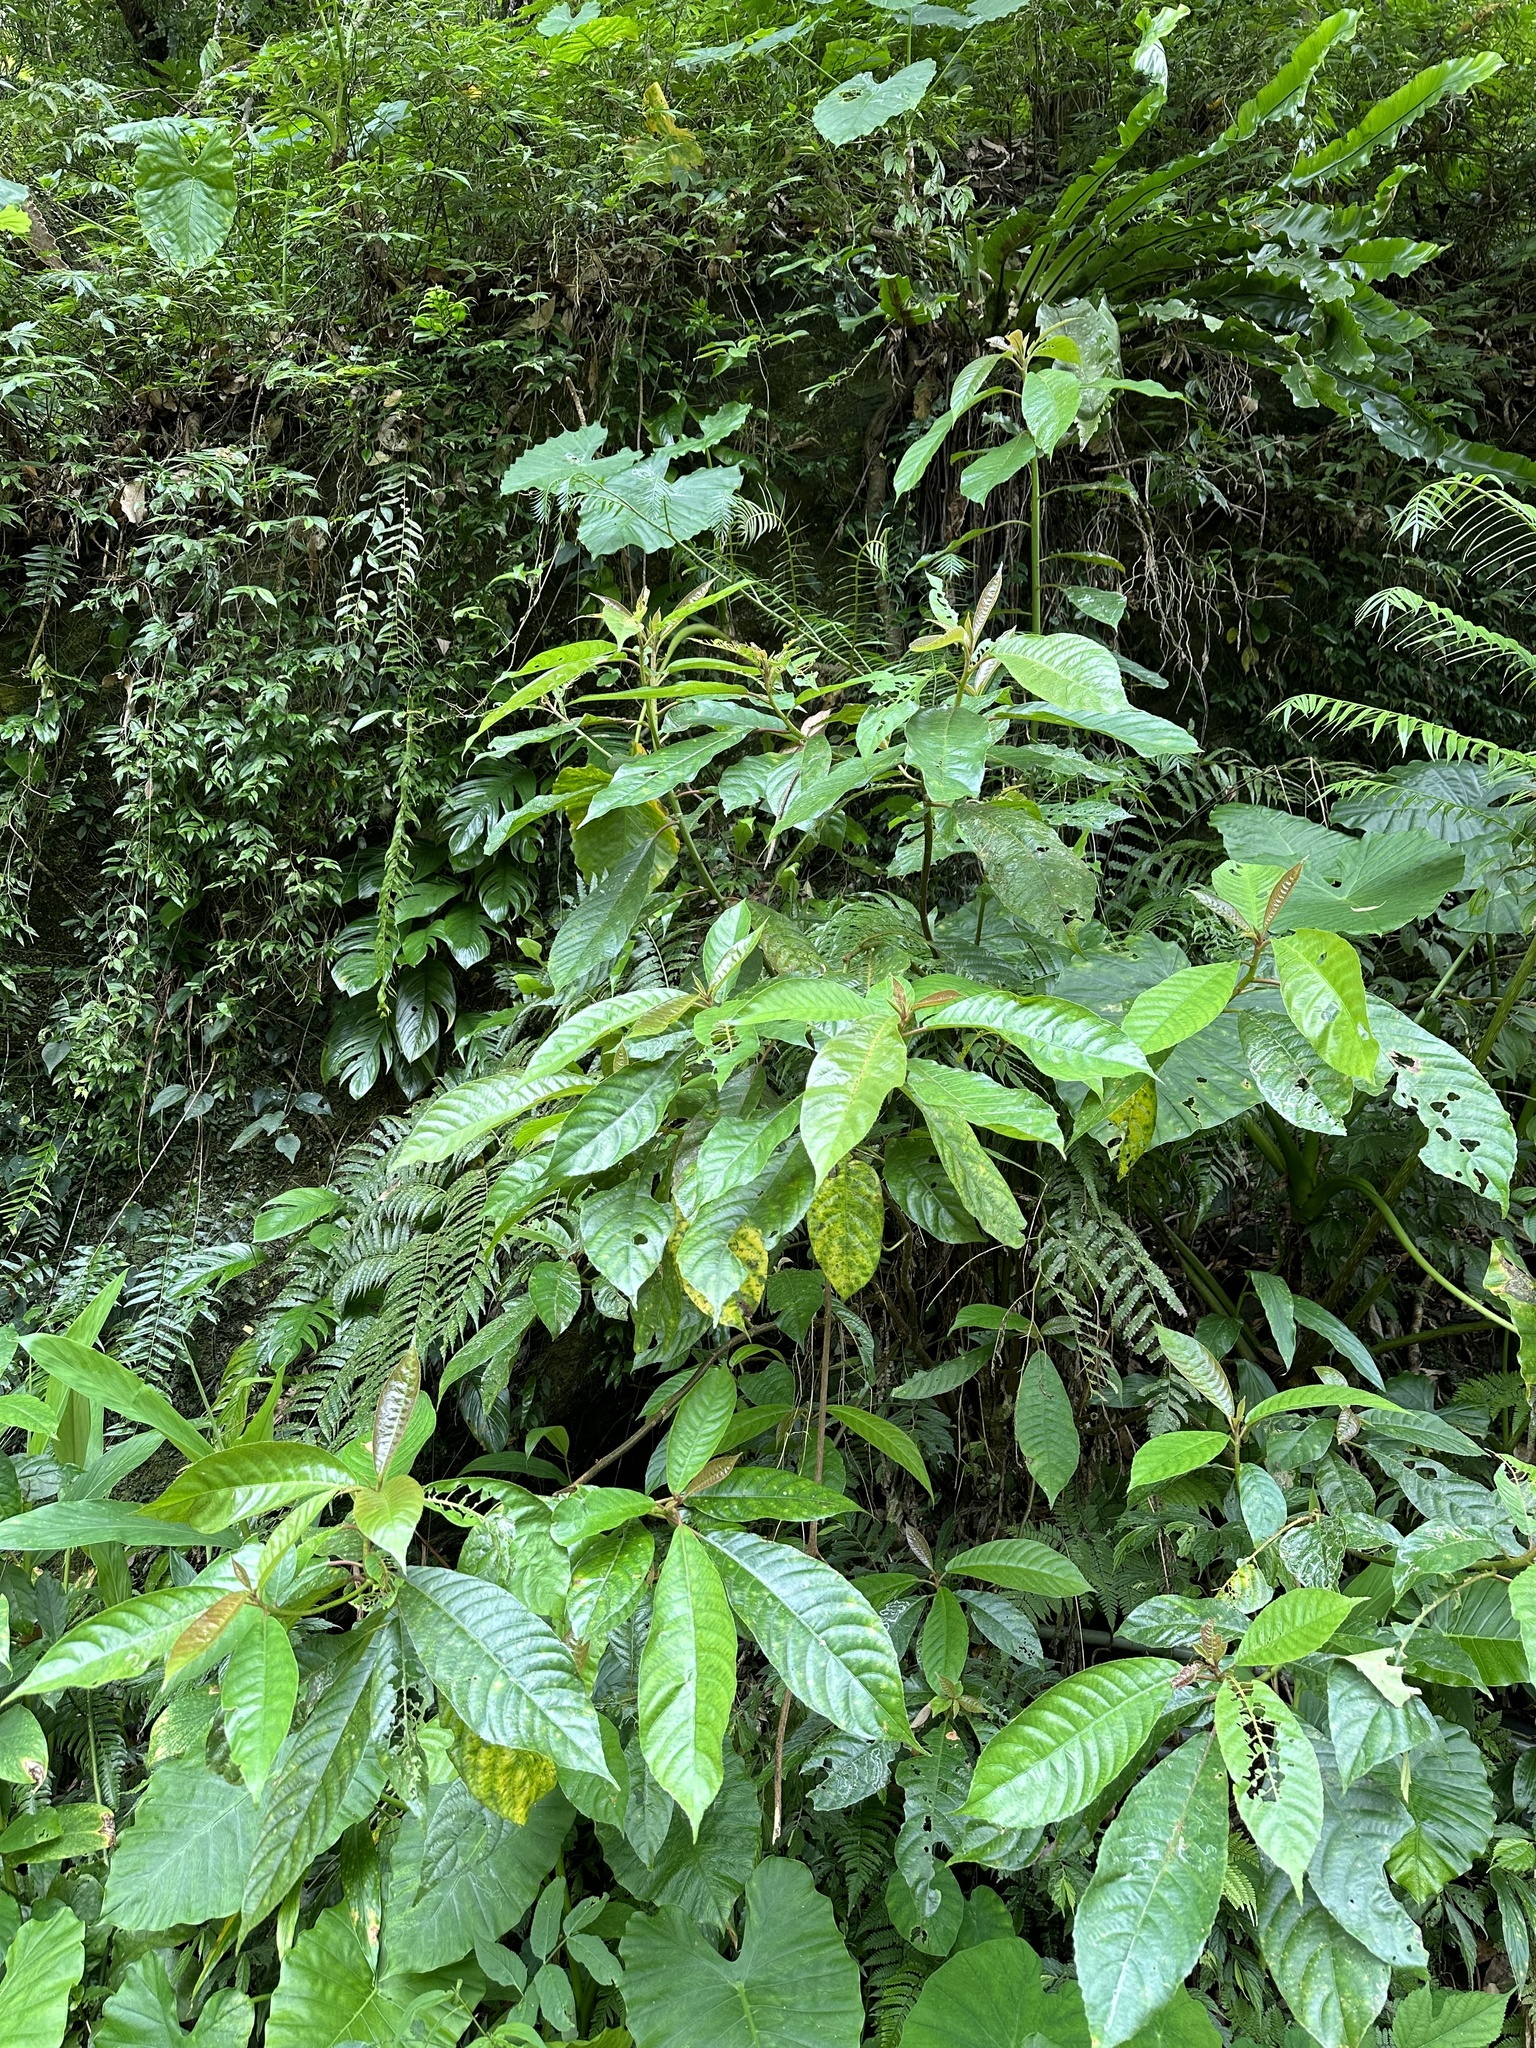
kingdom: Plantae
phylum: Tracheophyta
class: Magnoliopsida
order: Ericales
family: Actinidiaceae
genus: Saurauia
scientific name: Saurauia tristyla
